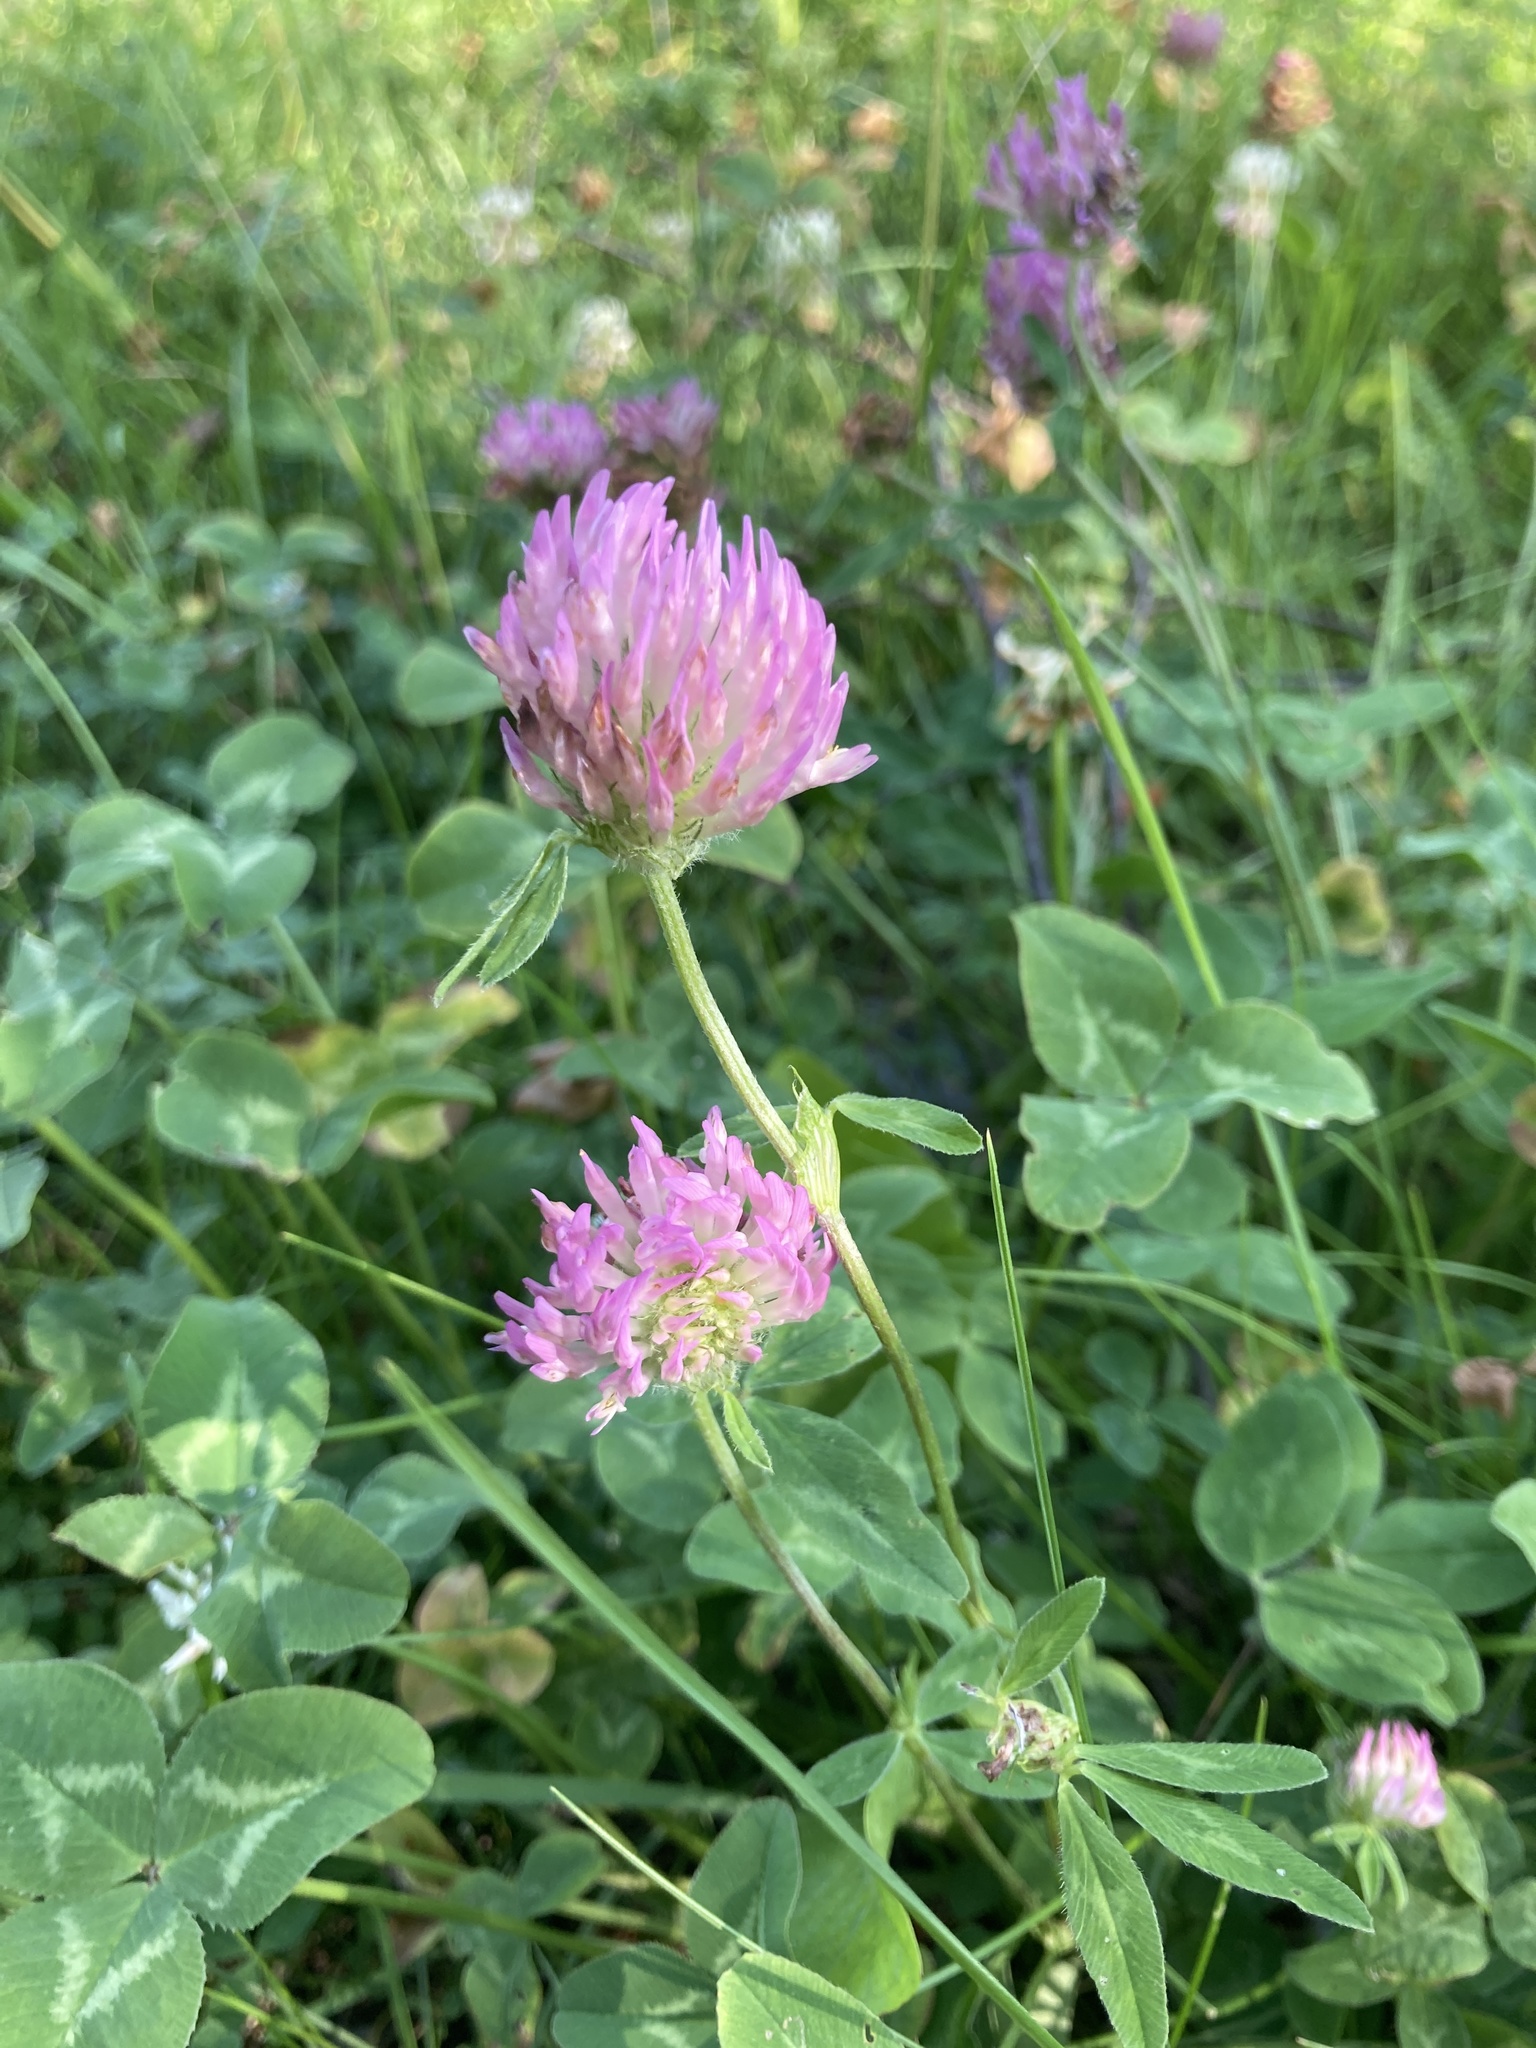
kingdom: Plantae
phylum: Tracheophyta
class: Magnoliopsida
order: Fabales
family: Fabaceae
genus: Trifolium
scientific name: Trifolium pratense
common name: Red clover
